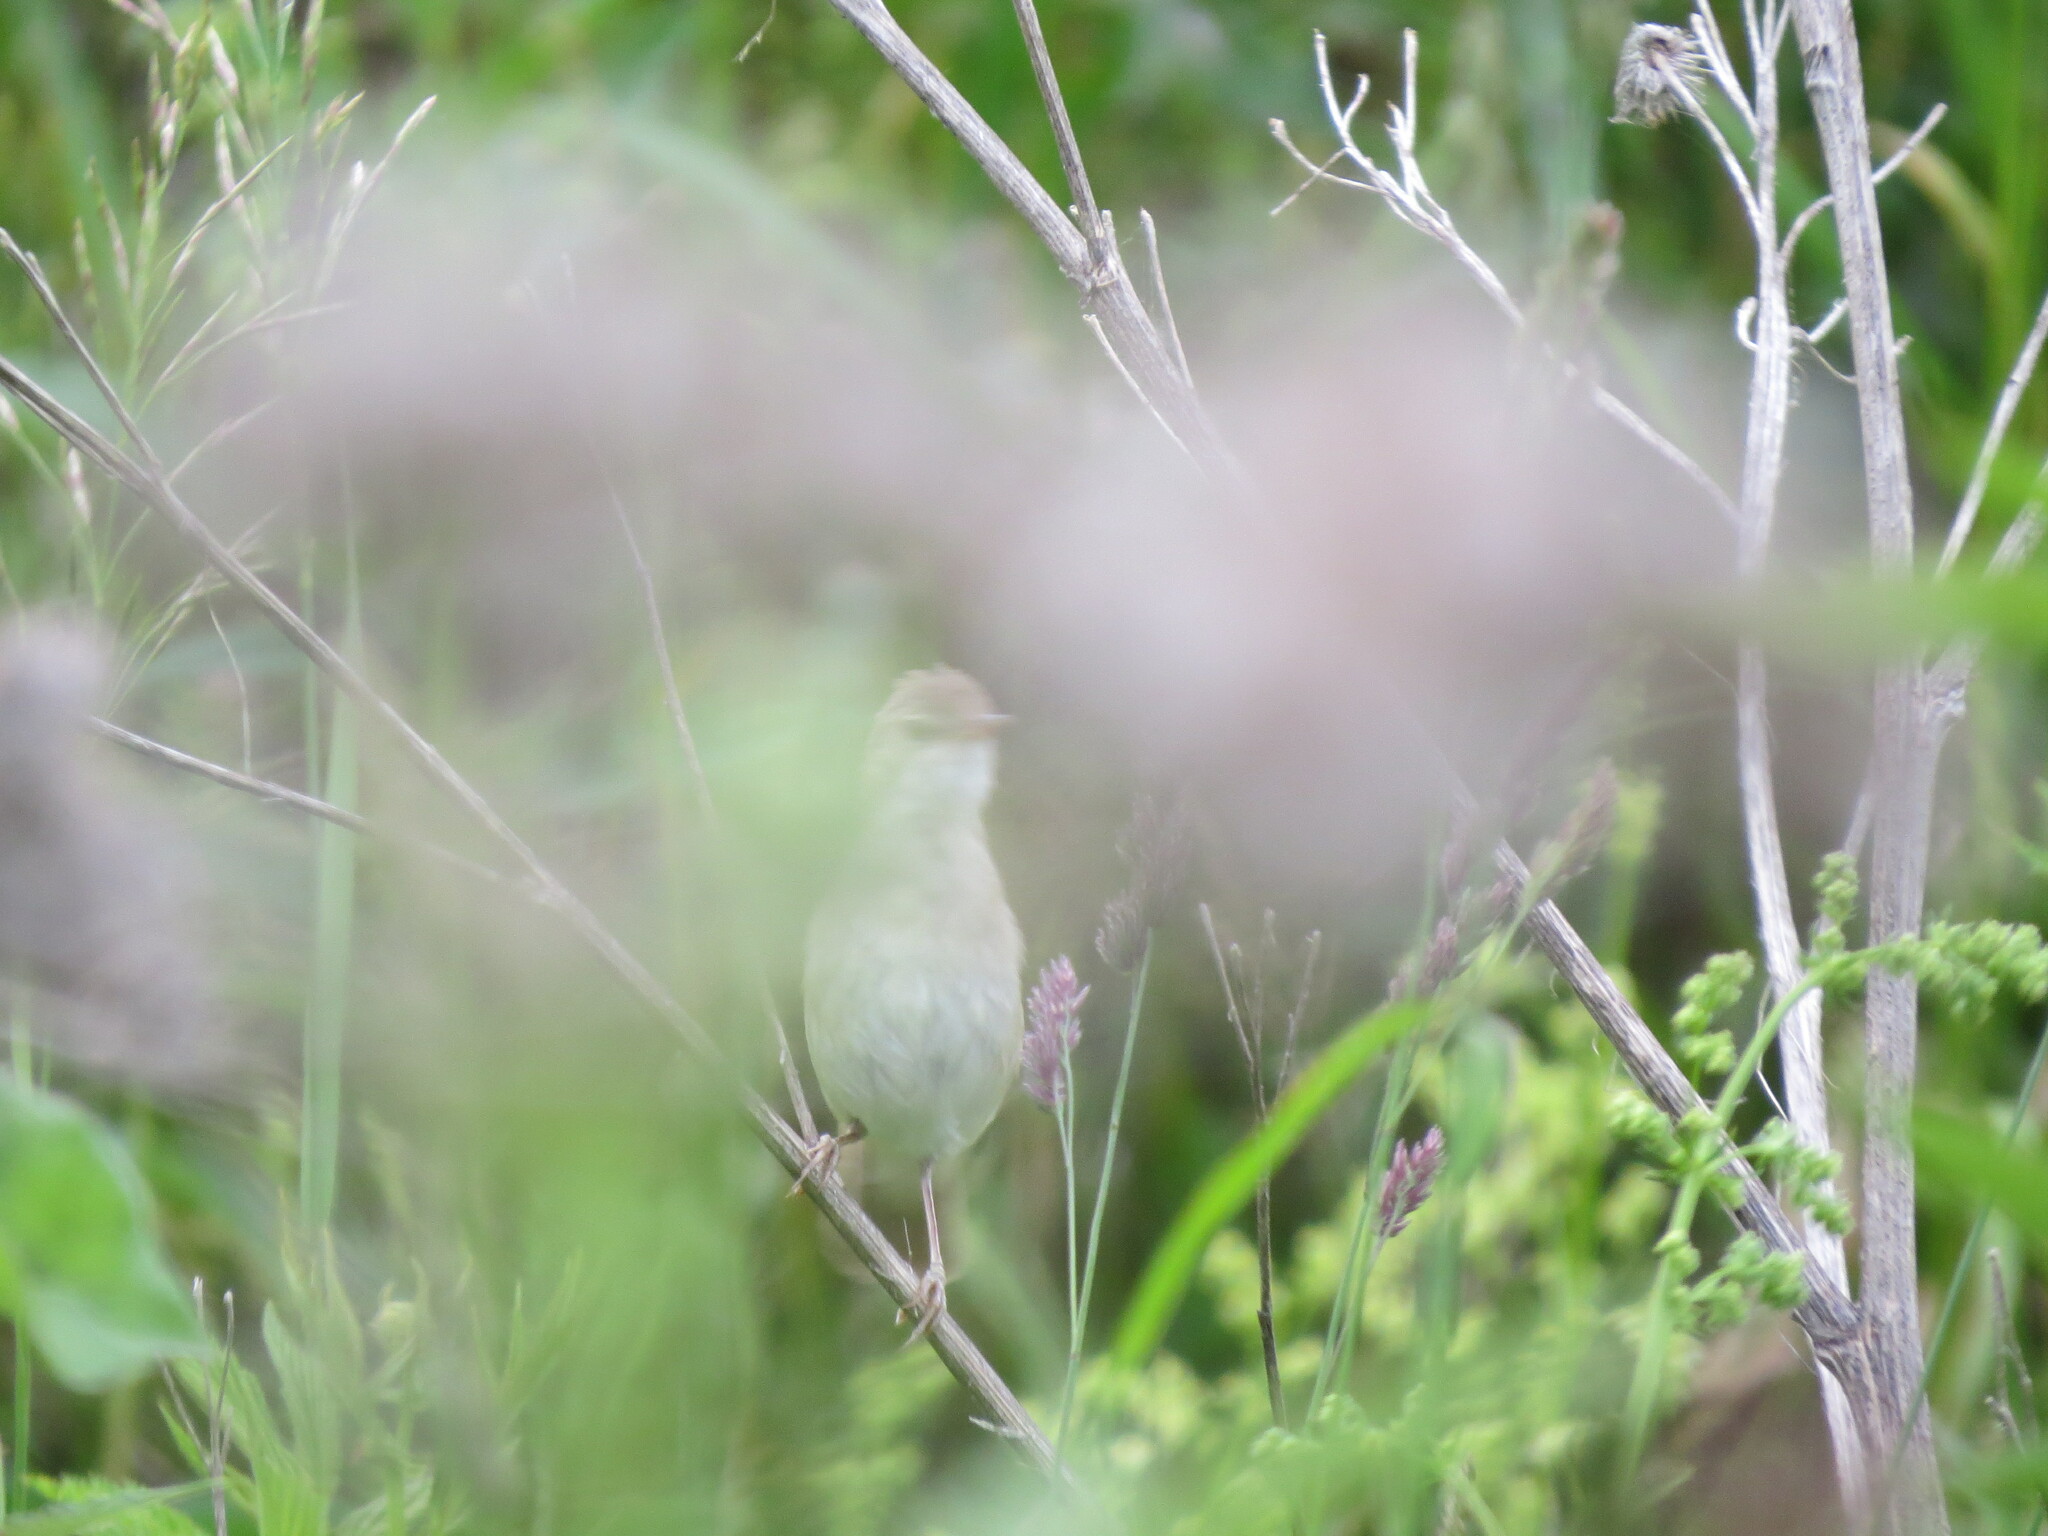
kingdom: Animalia
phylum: Chordata
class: Aves
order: Passeriformes
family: Acrocephalidae
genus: Iduna
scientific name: Iduna caligata
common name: Booted warbler
